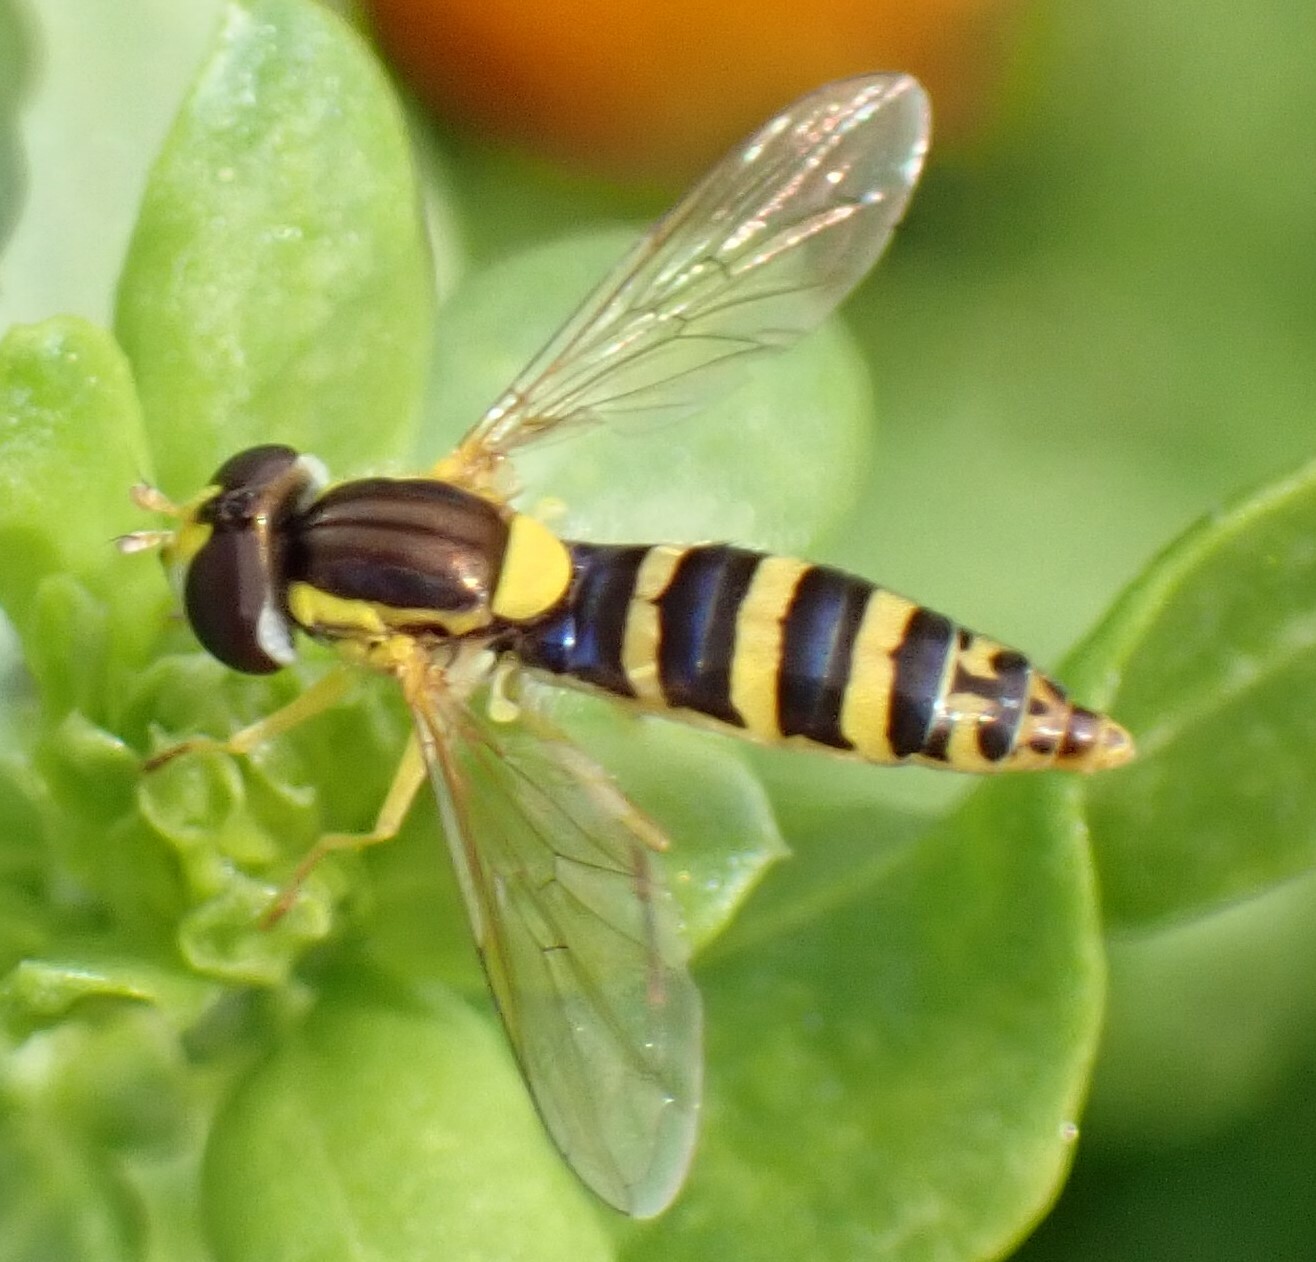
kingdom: Animalia
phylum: Arthropoda
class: Insecta
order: Diptera
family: Syrphidae
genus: Sphaerophoria
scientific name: Sphaerophoria
